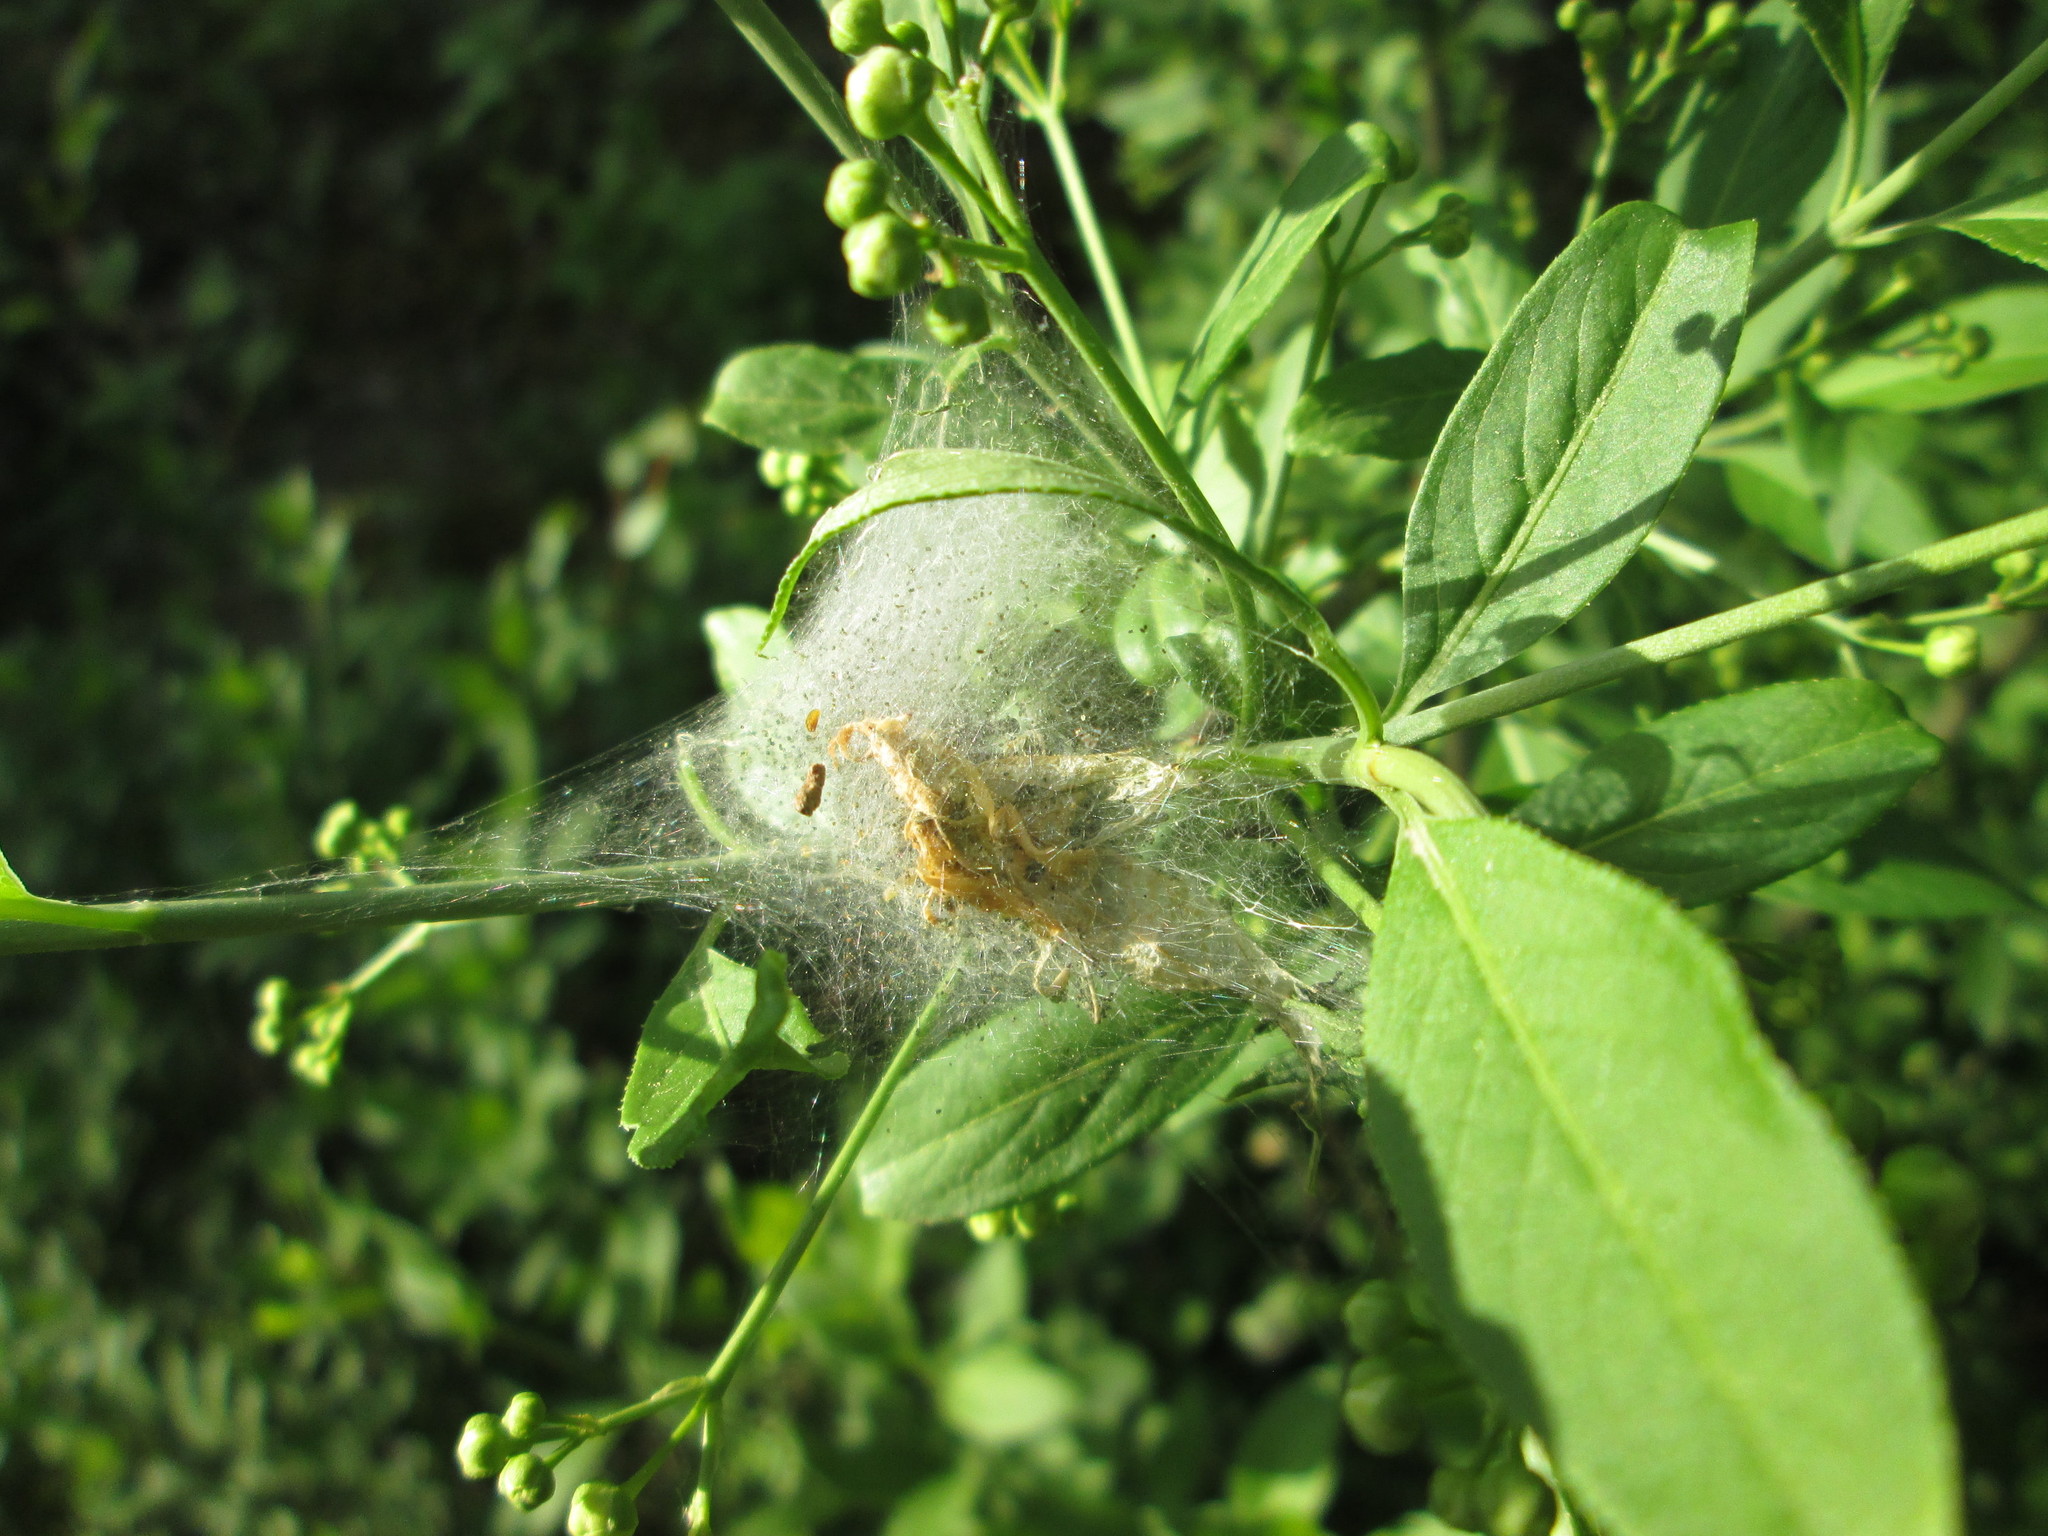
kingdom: Plantae
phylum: Tracheophyta
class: Magnoliopsida
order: Celastrales
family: Celastraceae
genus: Euonymus
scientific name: Euonymus europaeus
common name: Spindle
